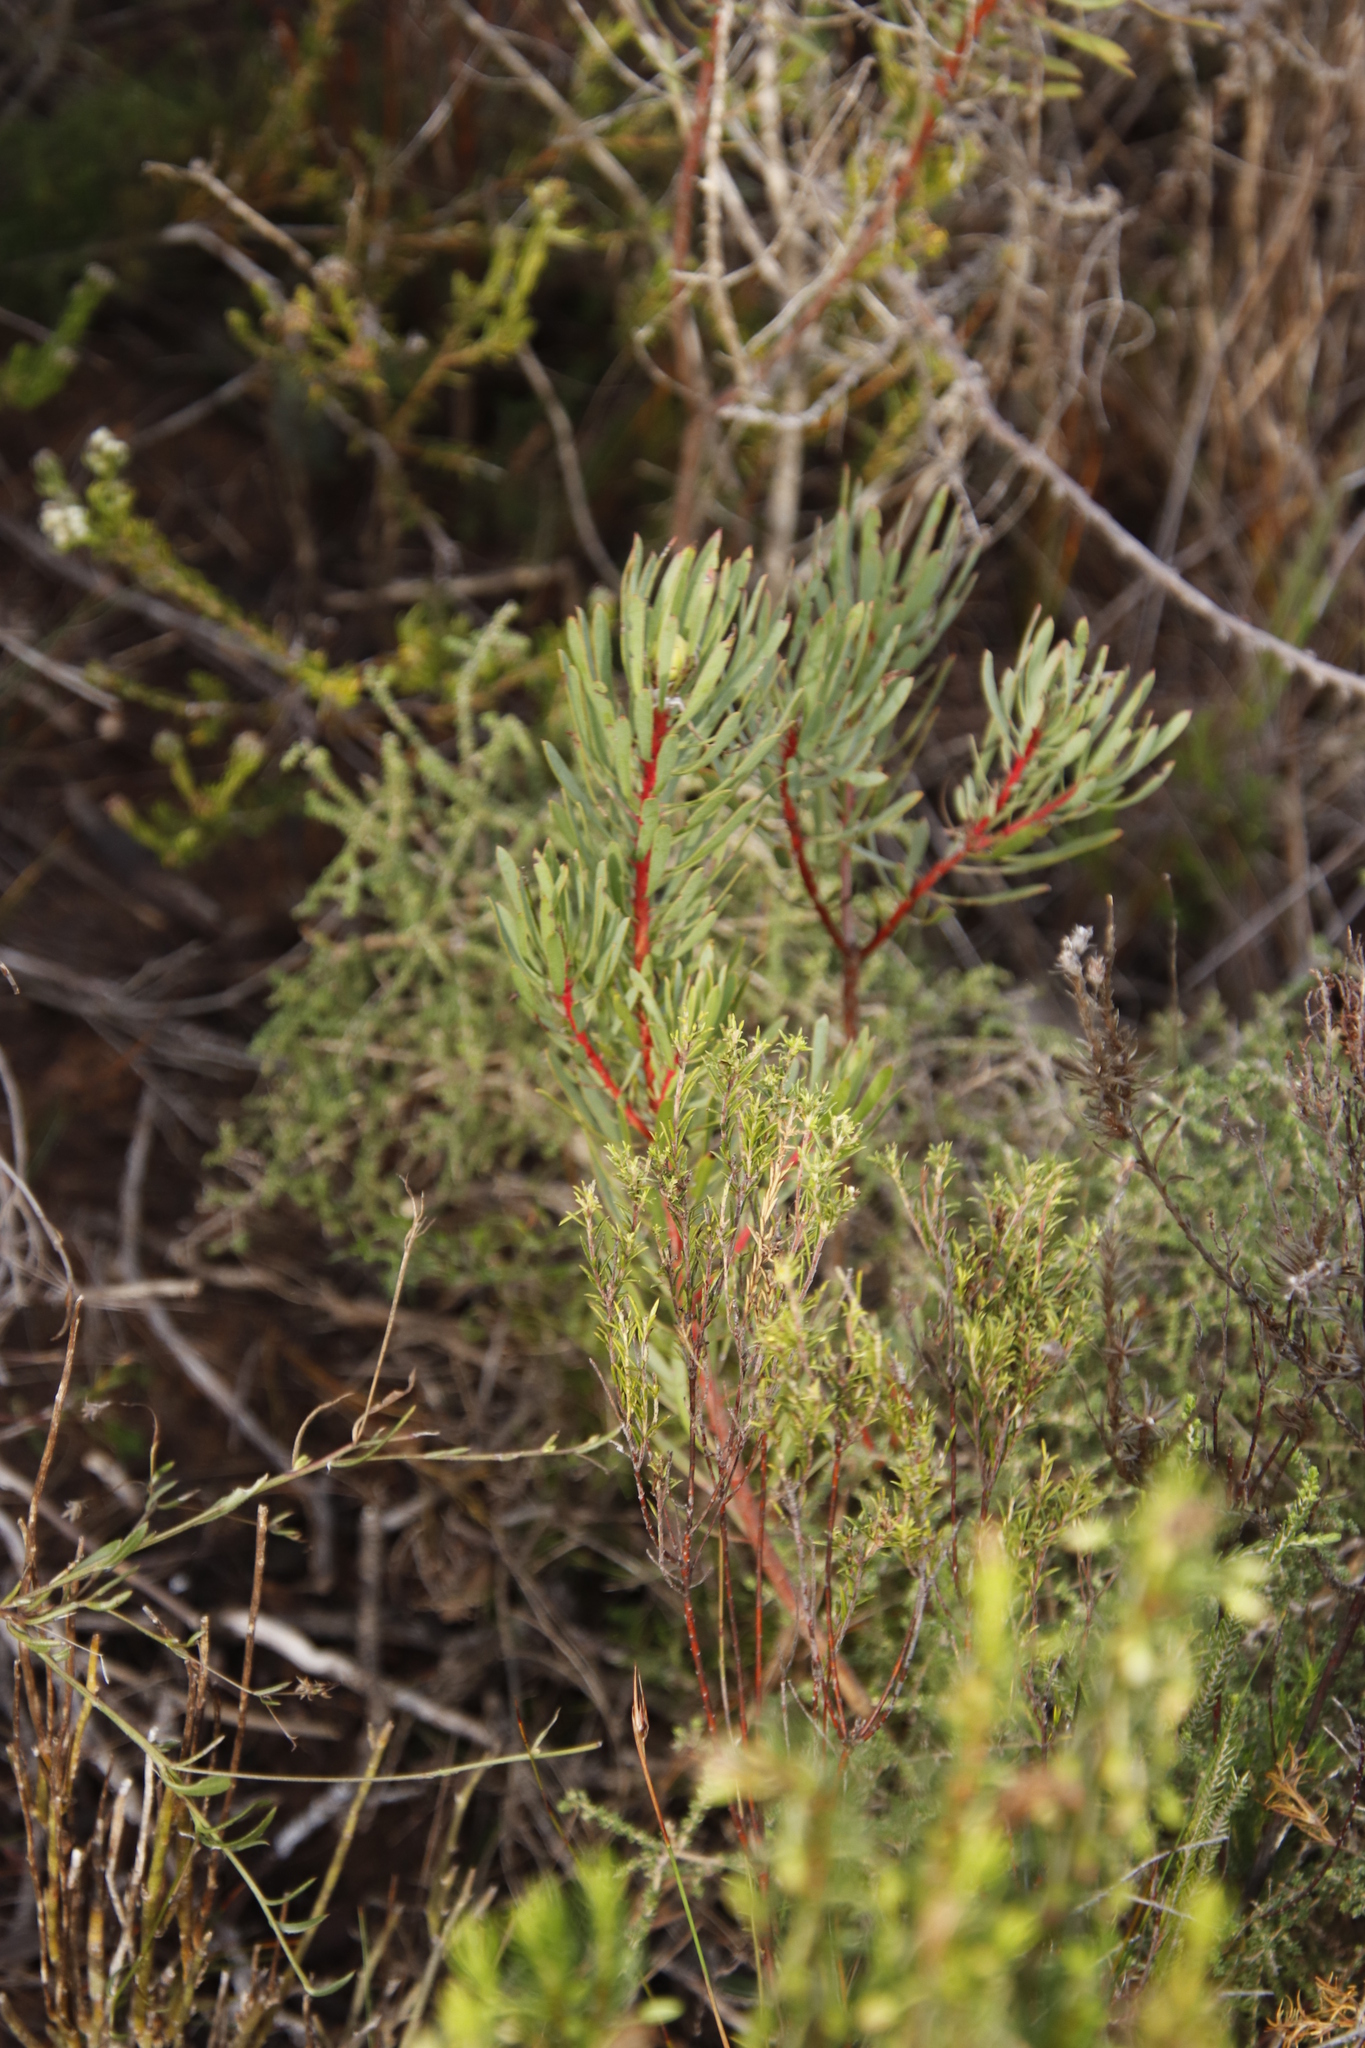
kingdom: Plantae
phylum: Tracheophyta
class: Magnoliopsida
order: Proteales
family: Proteaceae
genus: Protea
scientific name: Protea scolymocephala
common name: Thistle sugarbush
